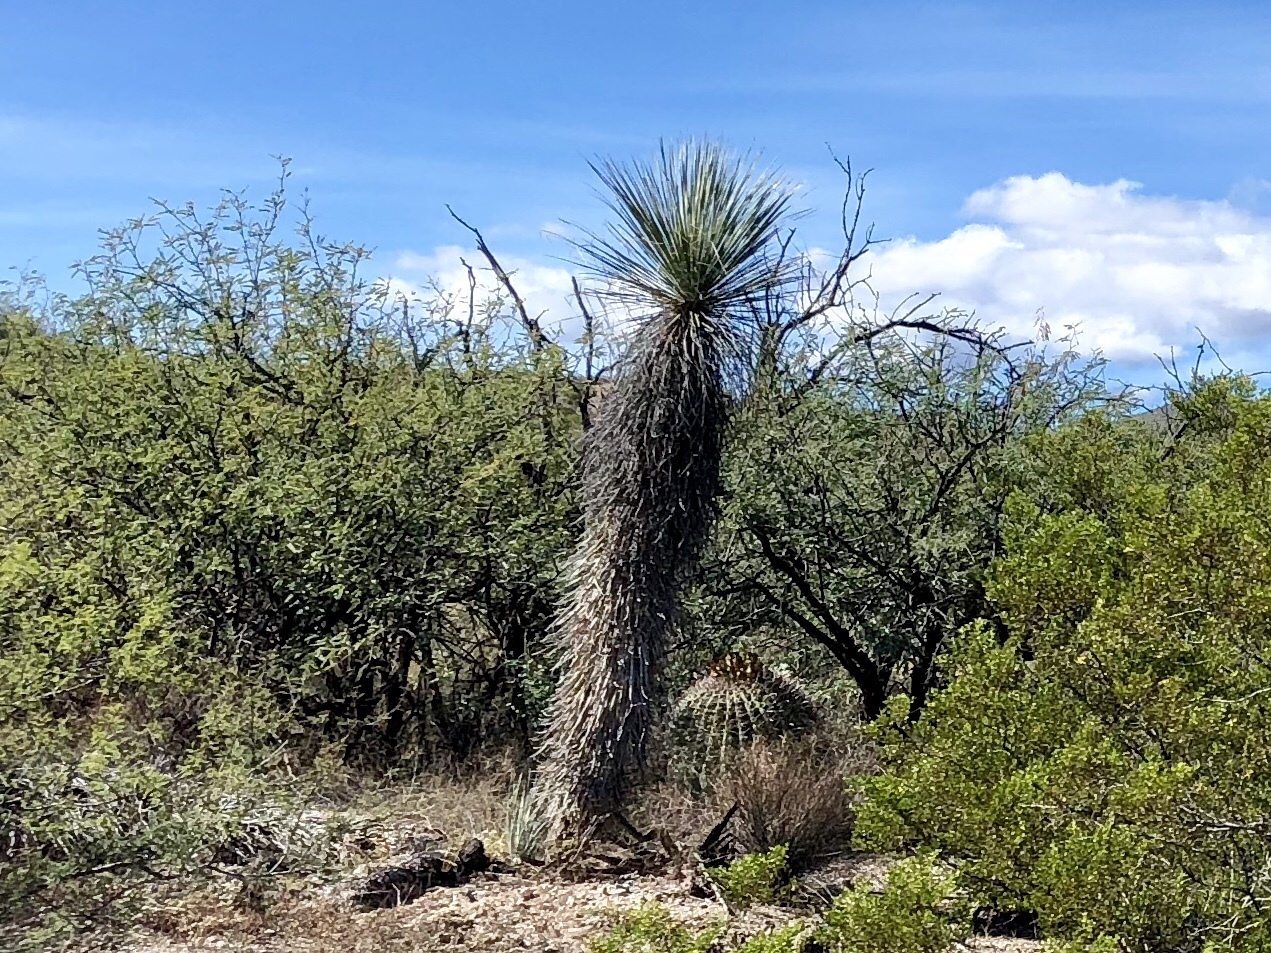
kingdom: Plantae
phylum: Tracheophyta
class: Liliopsida
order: Asparagales
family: Asparagaceae
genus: Yucca
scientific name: Yucca elata
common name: Palmella
